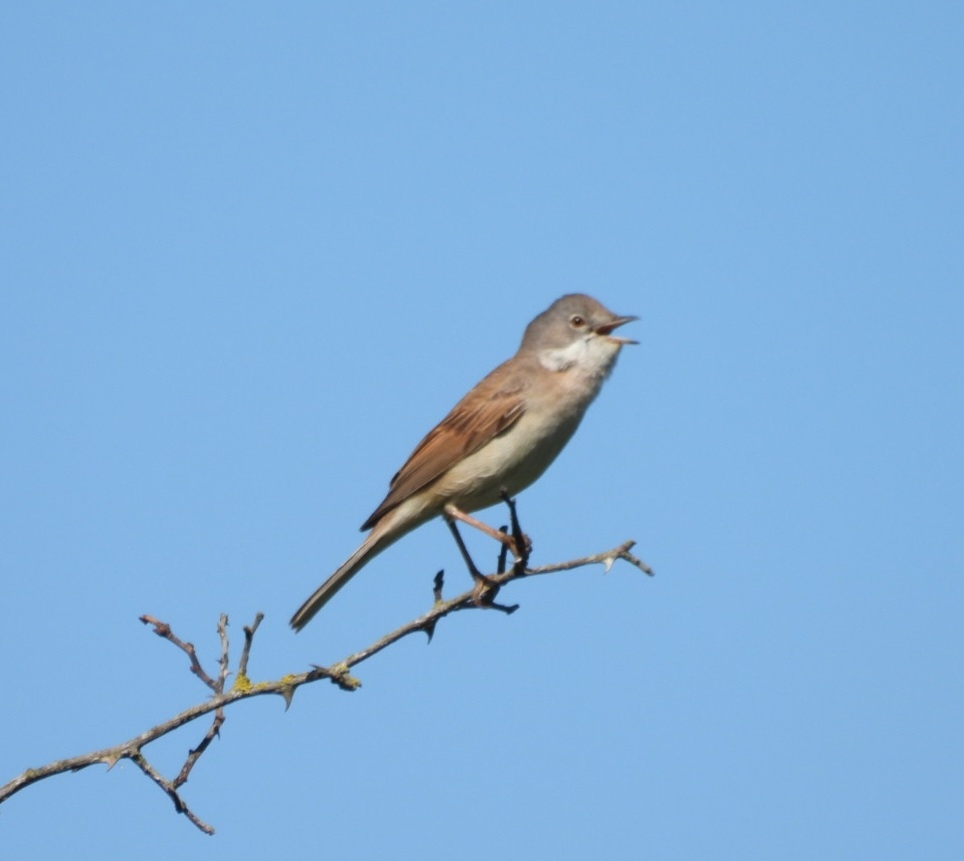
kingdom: Animalia
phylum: Chordata
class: Aves
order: Passeriformes
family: Sylviidae
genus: Sylvia
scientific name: Sylvia communis
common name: Common whitethroat
